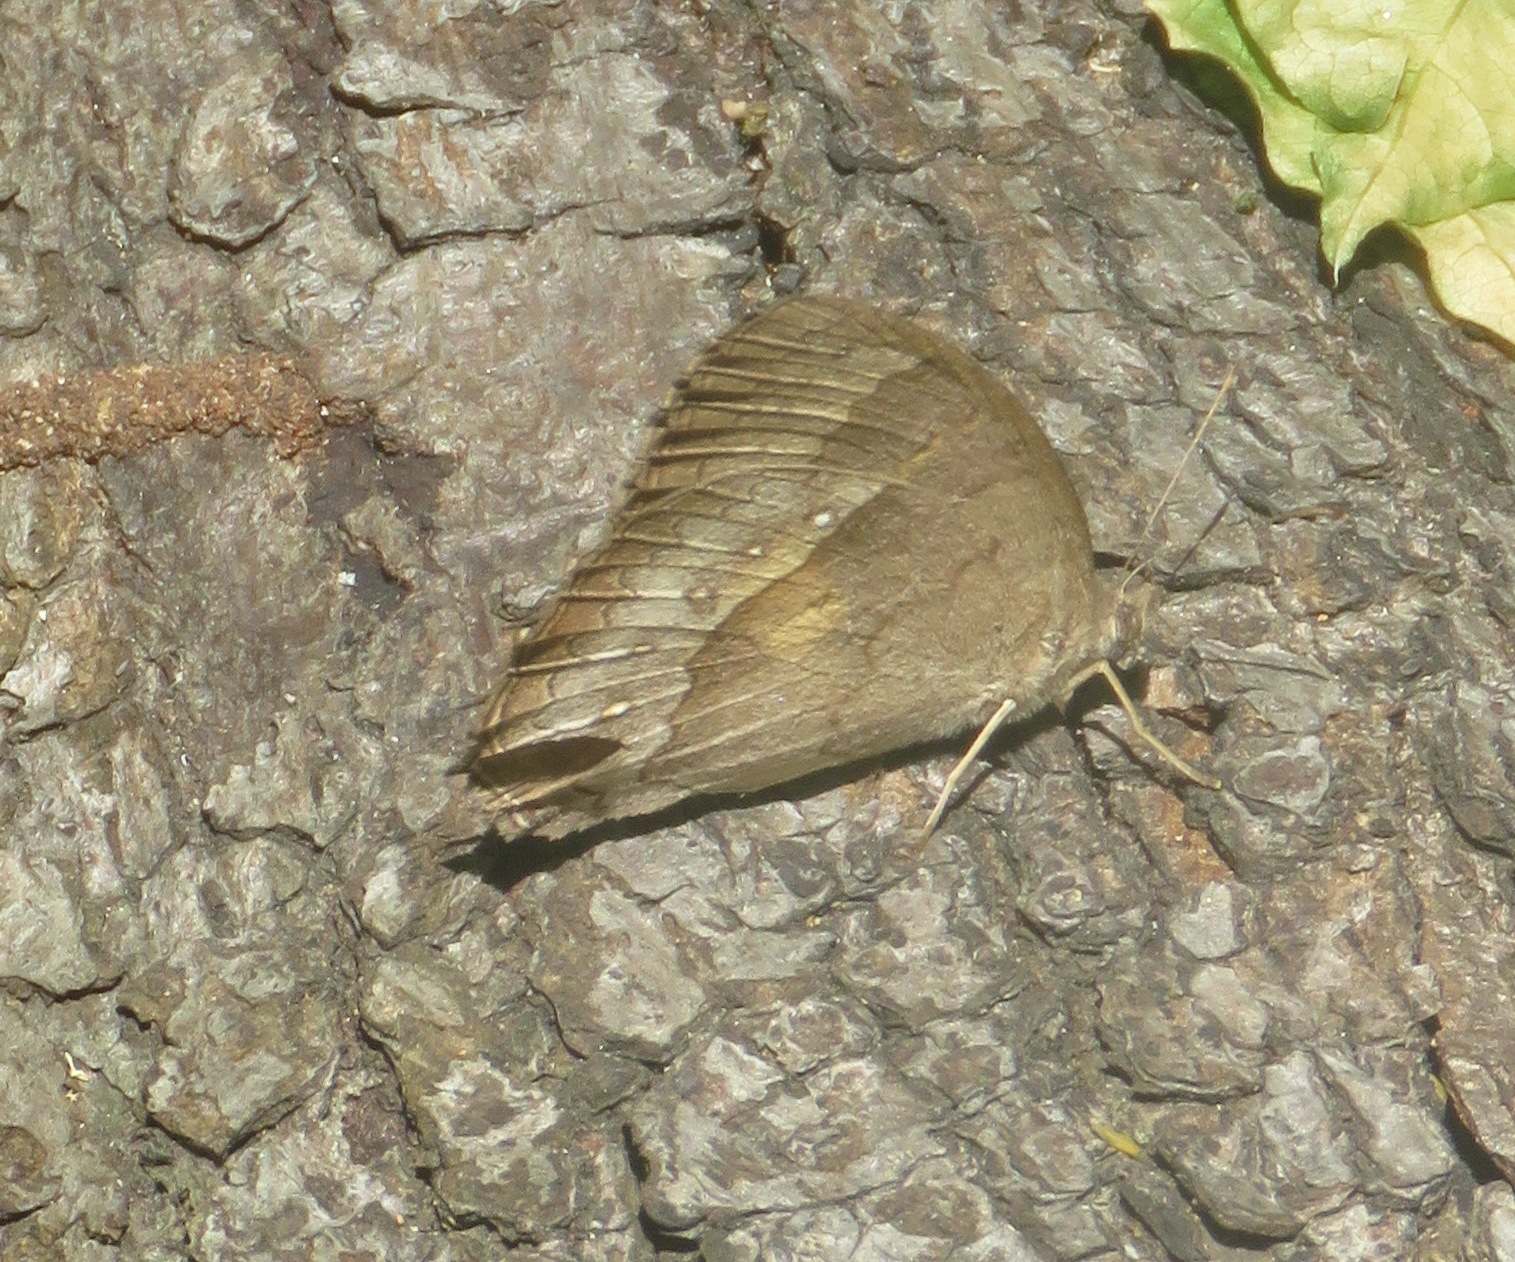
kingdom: Animalia
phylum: Arthropoda
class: Insecta
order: Lepidoptera
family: Nymphalidae
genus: Taygetina
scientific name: Taygetina kerea
